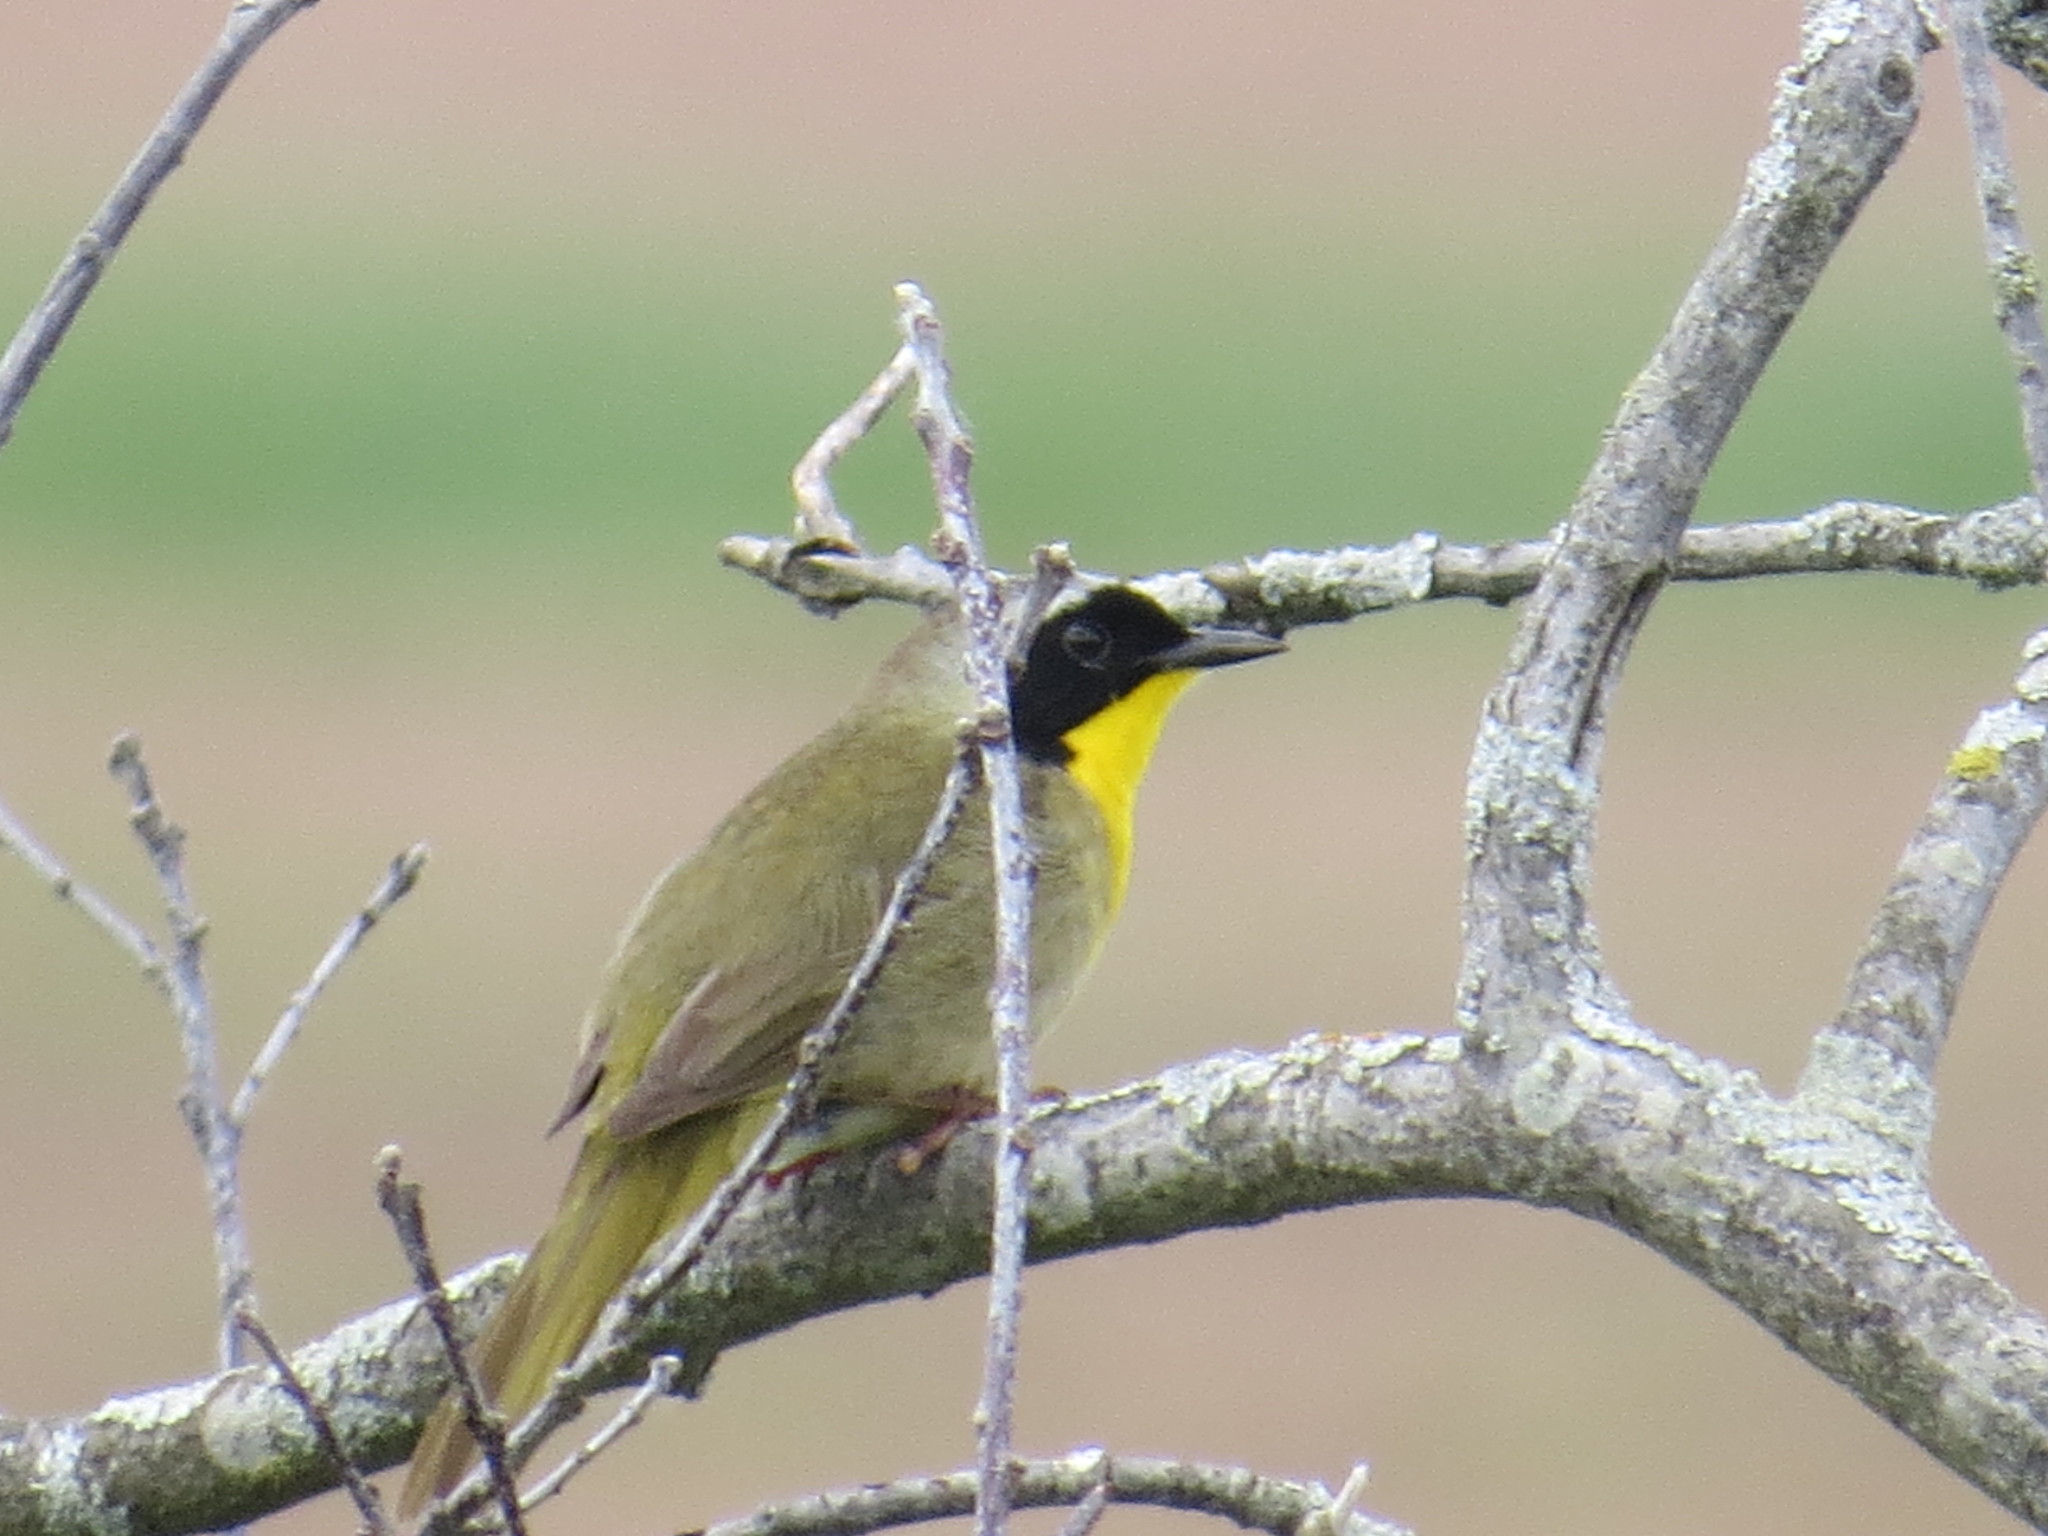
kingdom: Animalia
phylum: Chordata
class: Aves
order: Passeriformes
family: Parulidae
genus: Geothlypis
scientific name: Geothlypis trichas
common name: Common yellowthroat
